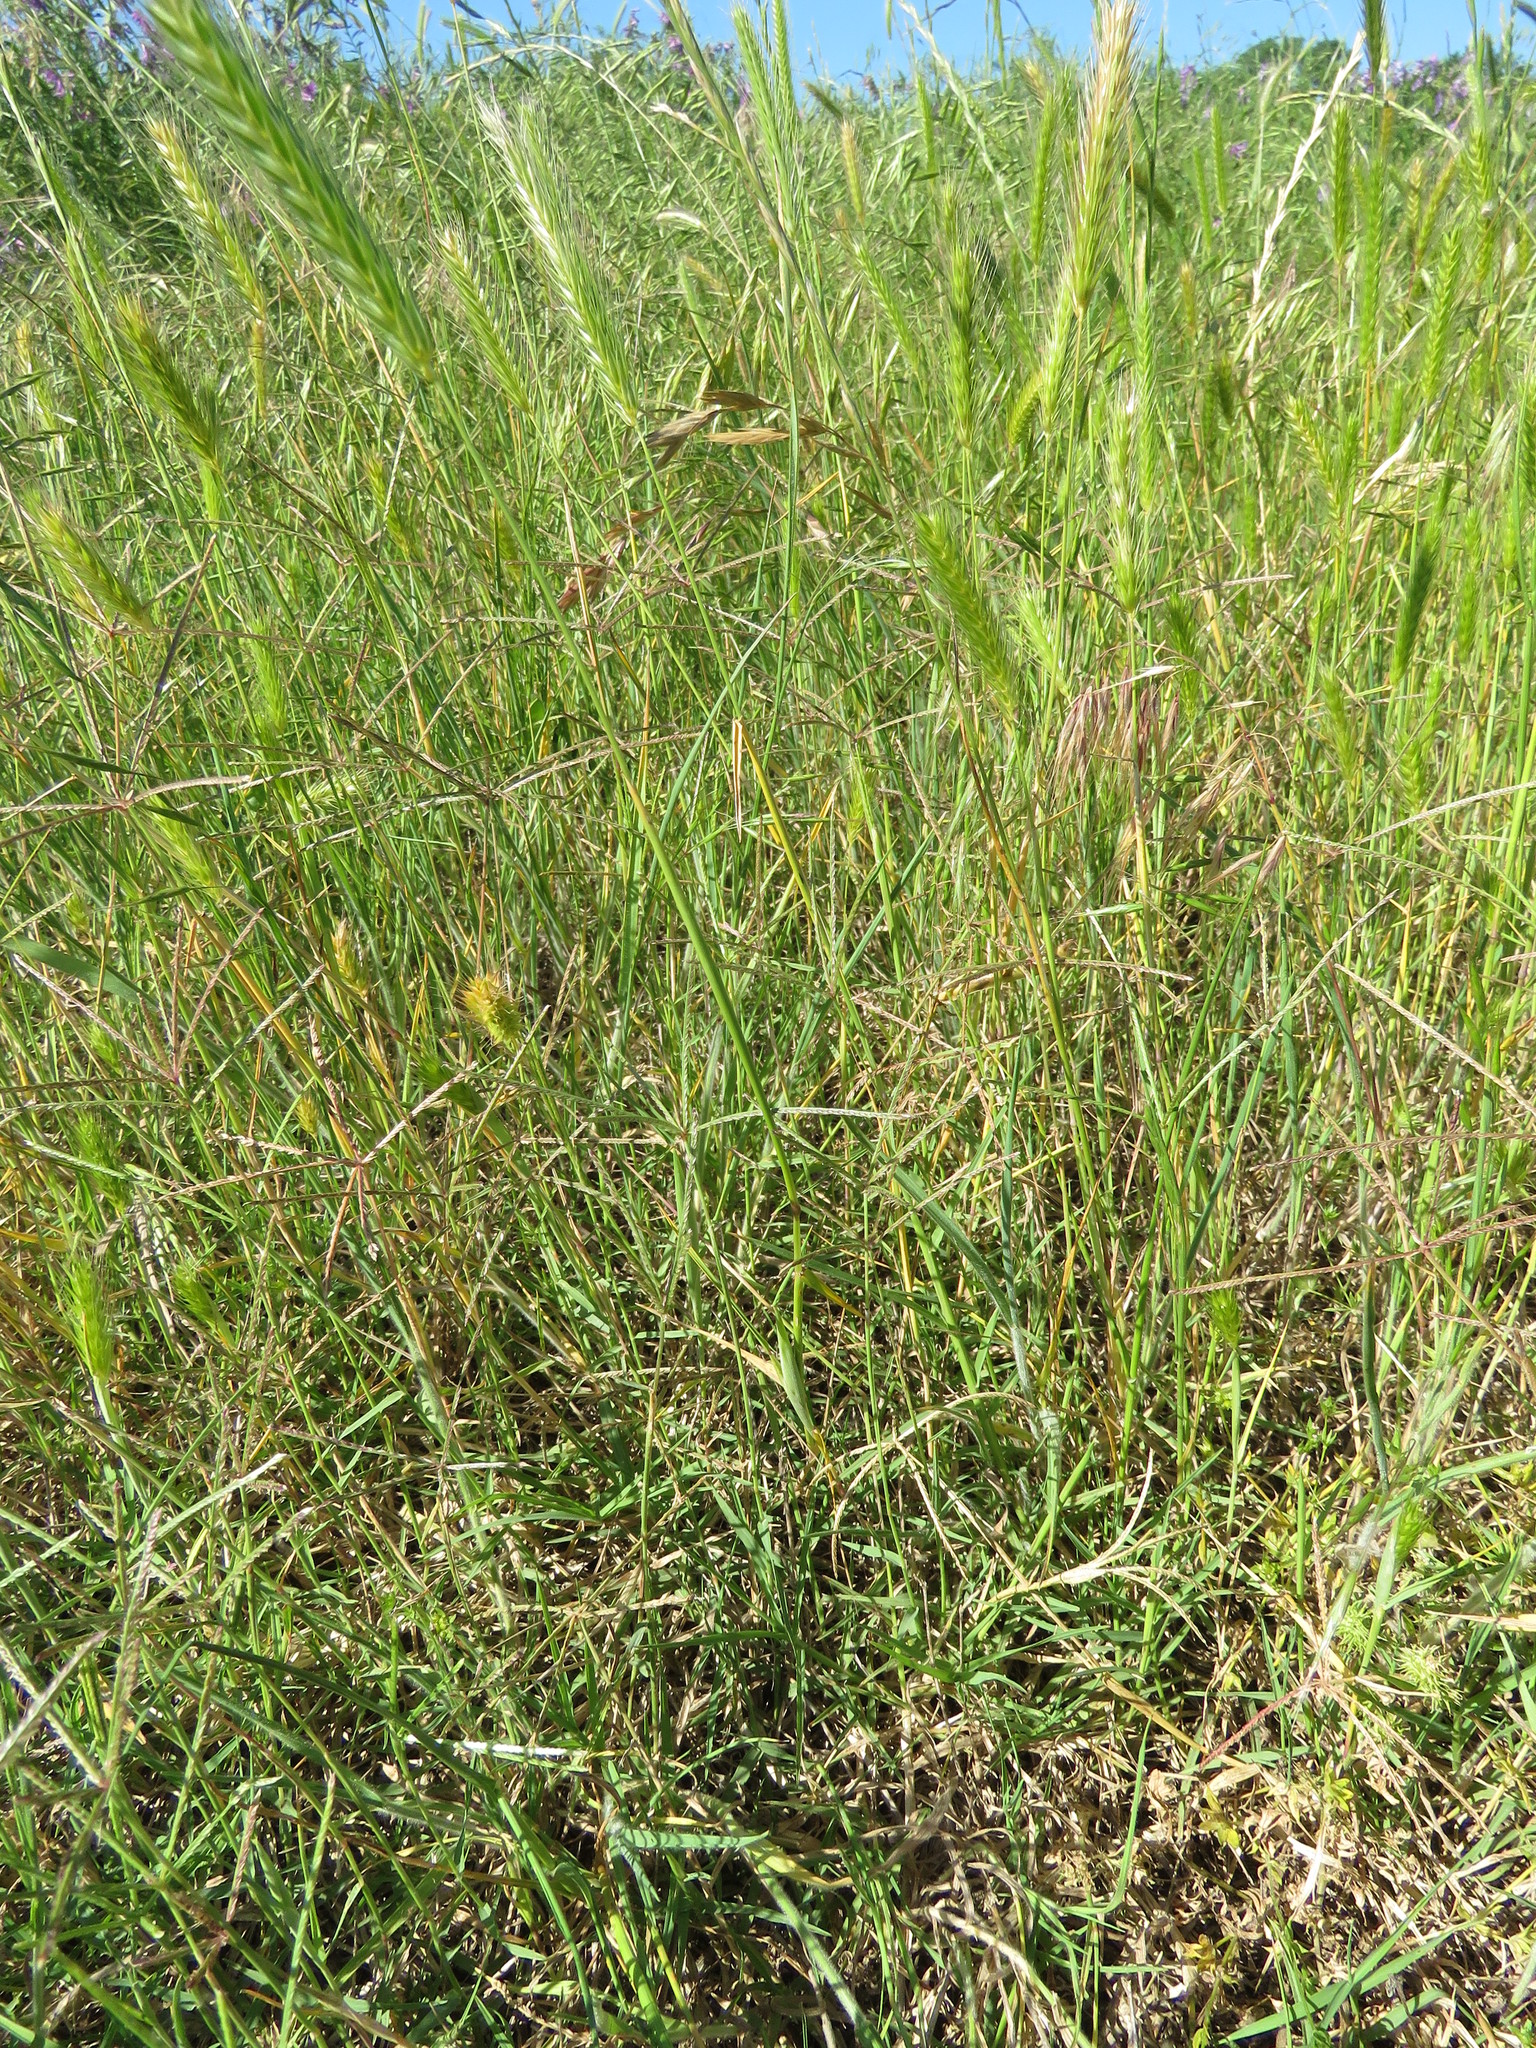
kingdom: Plantae
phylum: Tracheophyta
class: Liliopsida
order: Poales
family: Poaceae
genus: Hordeum
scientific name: Hordeum pusillum
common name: Little barley
